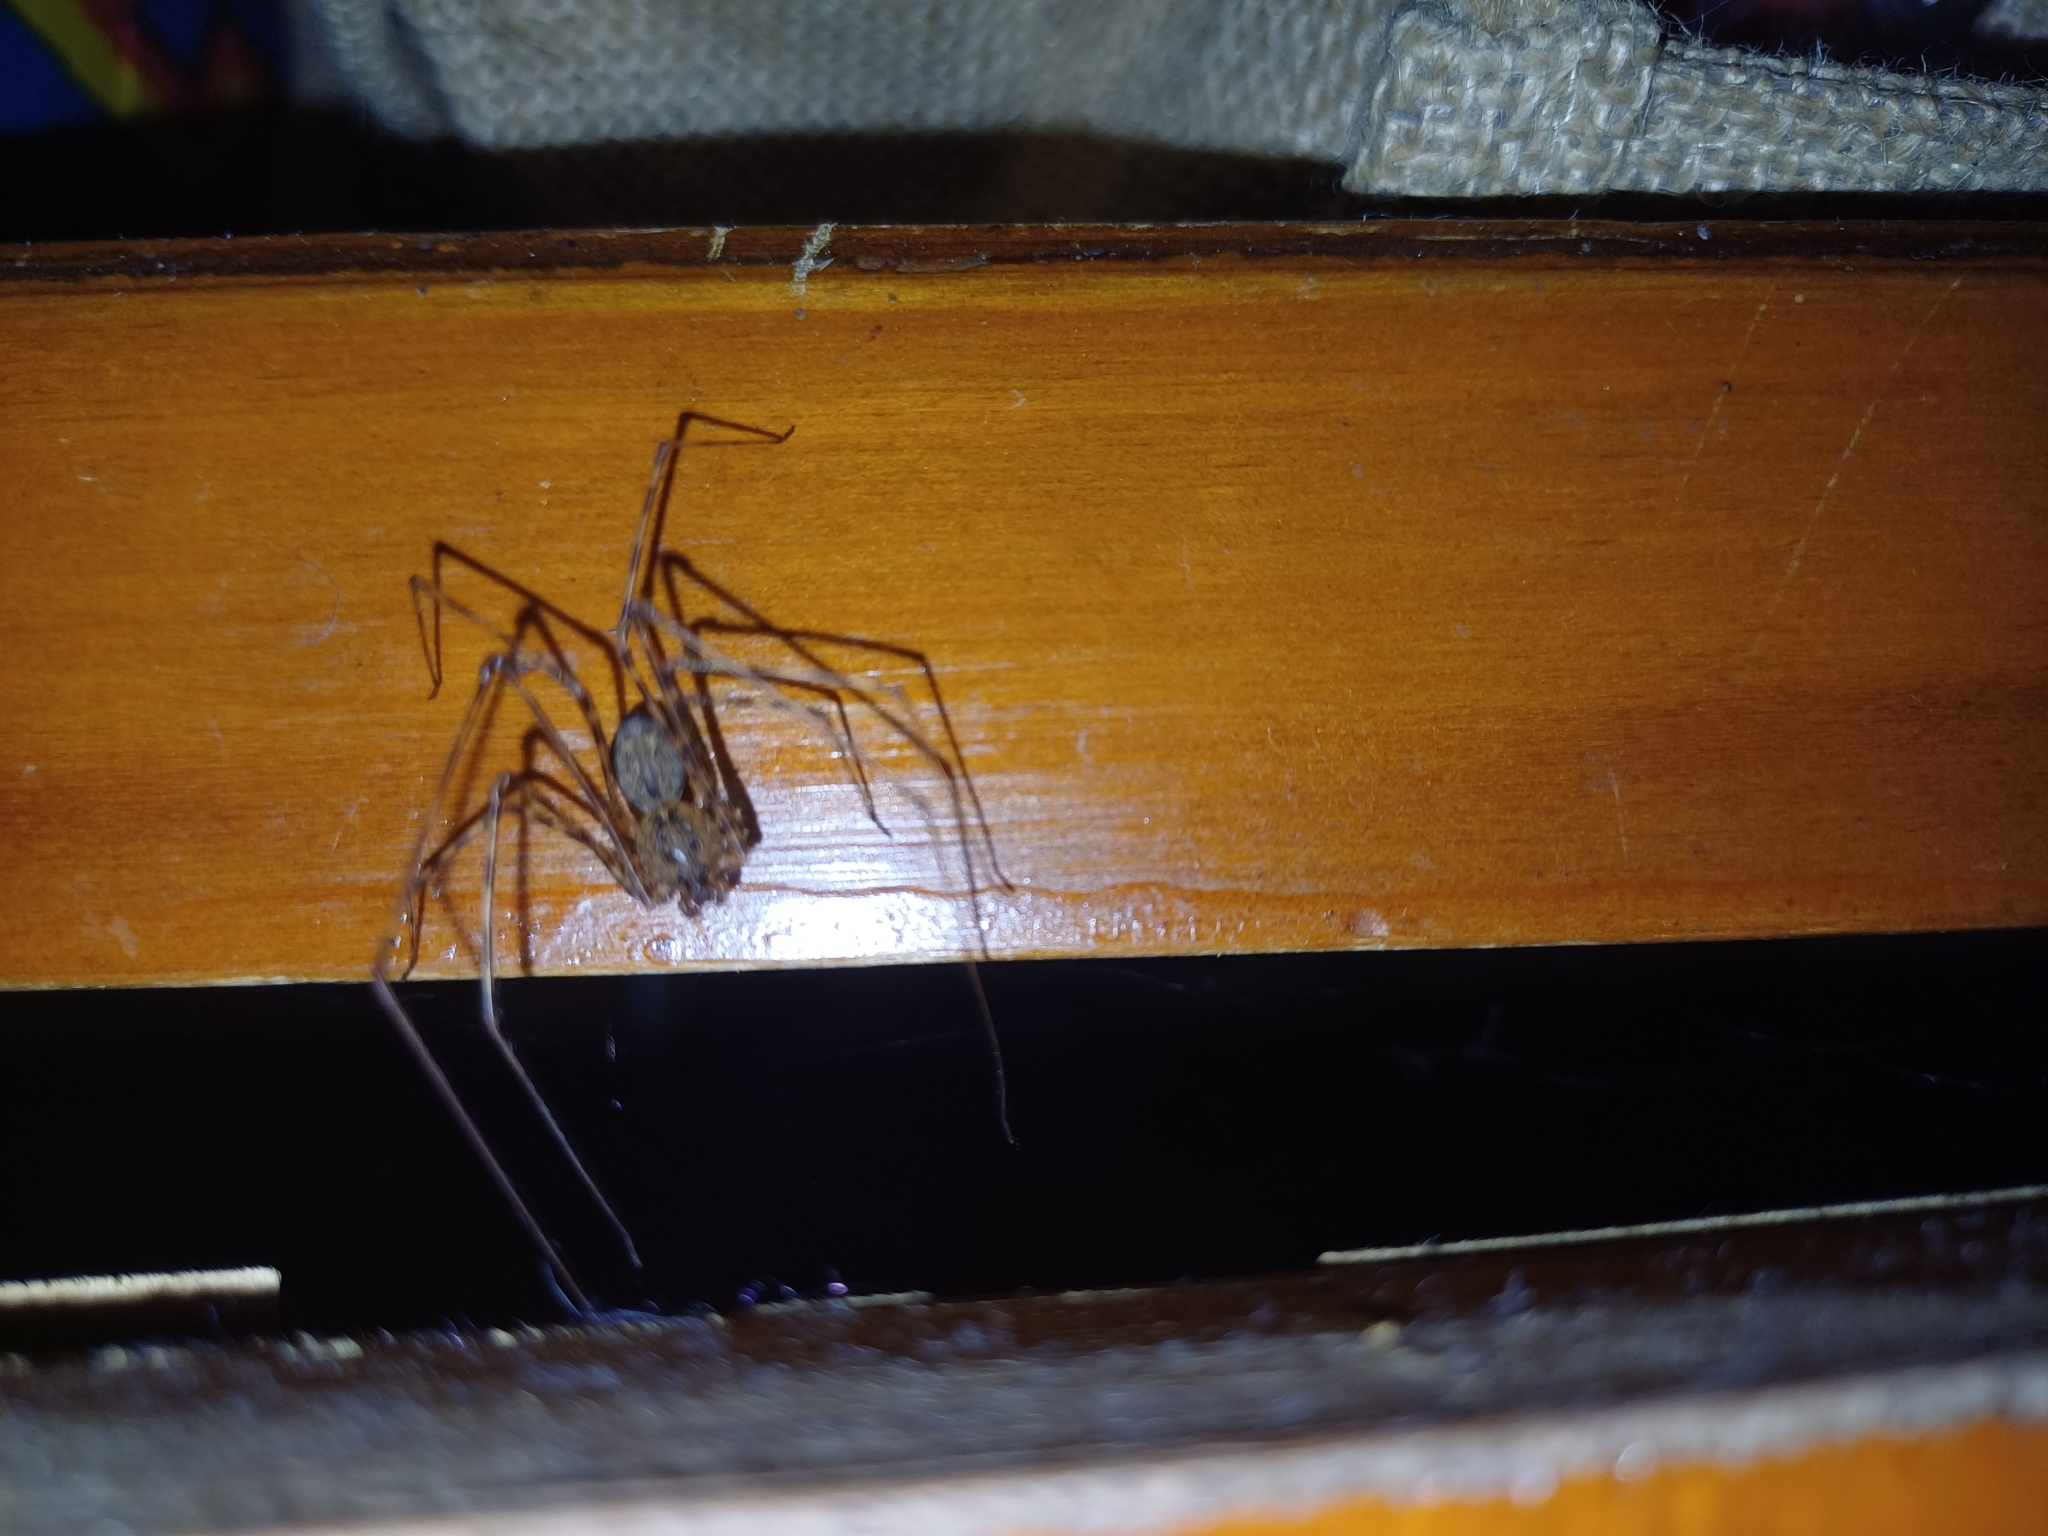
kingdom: Animalia
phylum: Arthropoda
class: Arachnida
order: Araneae
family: Scytodidae
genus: Scytodes
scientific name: Scytodes globula
